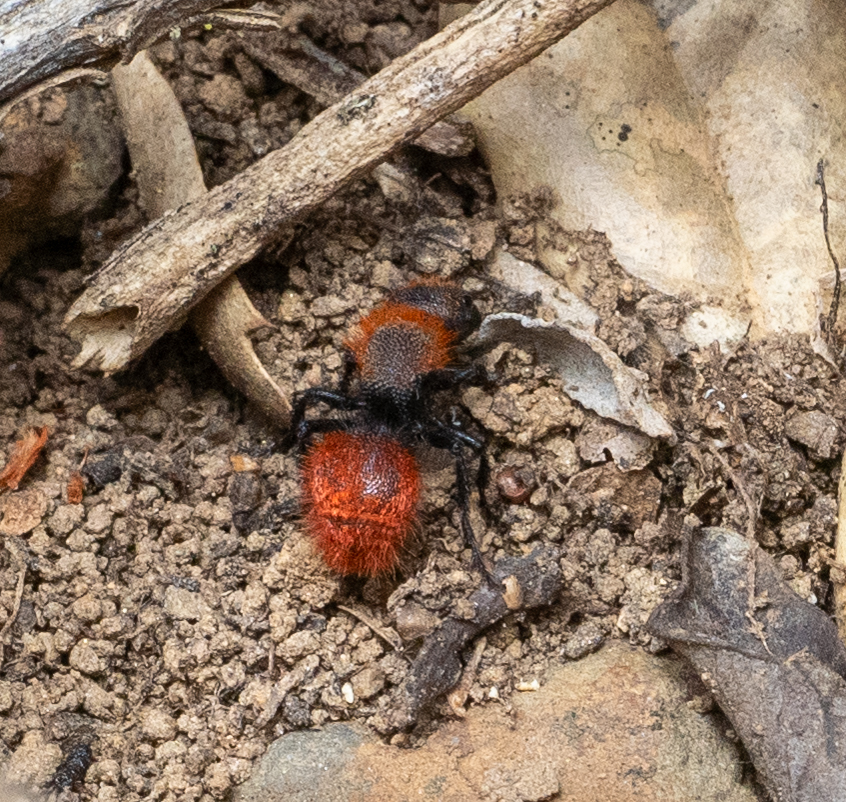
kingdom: Animalia
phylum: Arthropoda
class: Insecta
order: Hymenoptera
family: Mutillidae
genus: Dasymutilla
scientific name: Dasymutilla
